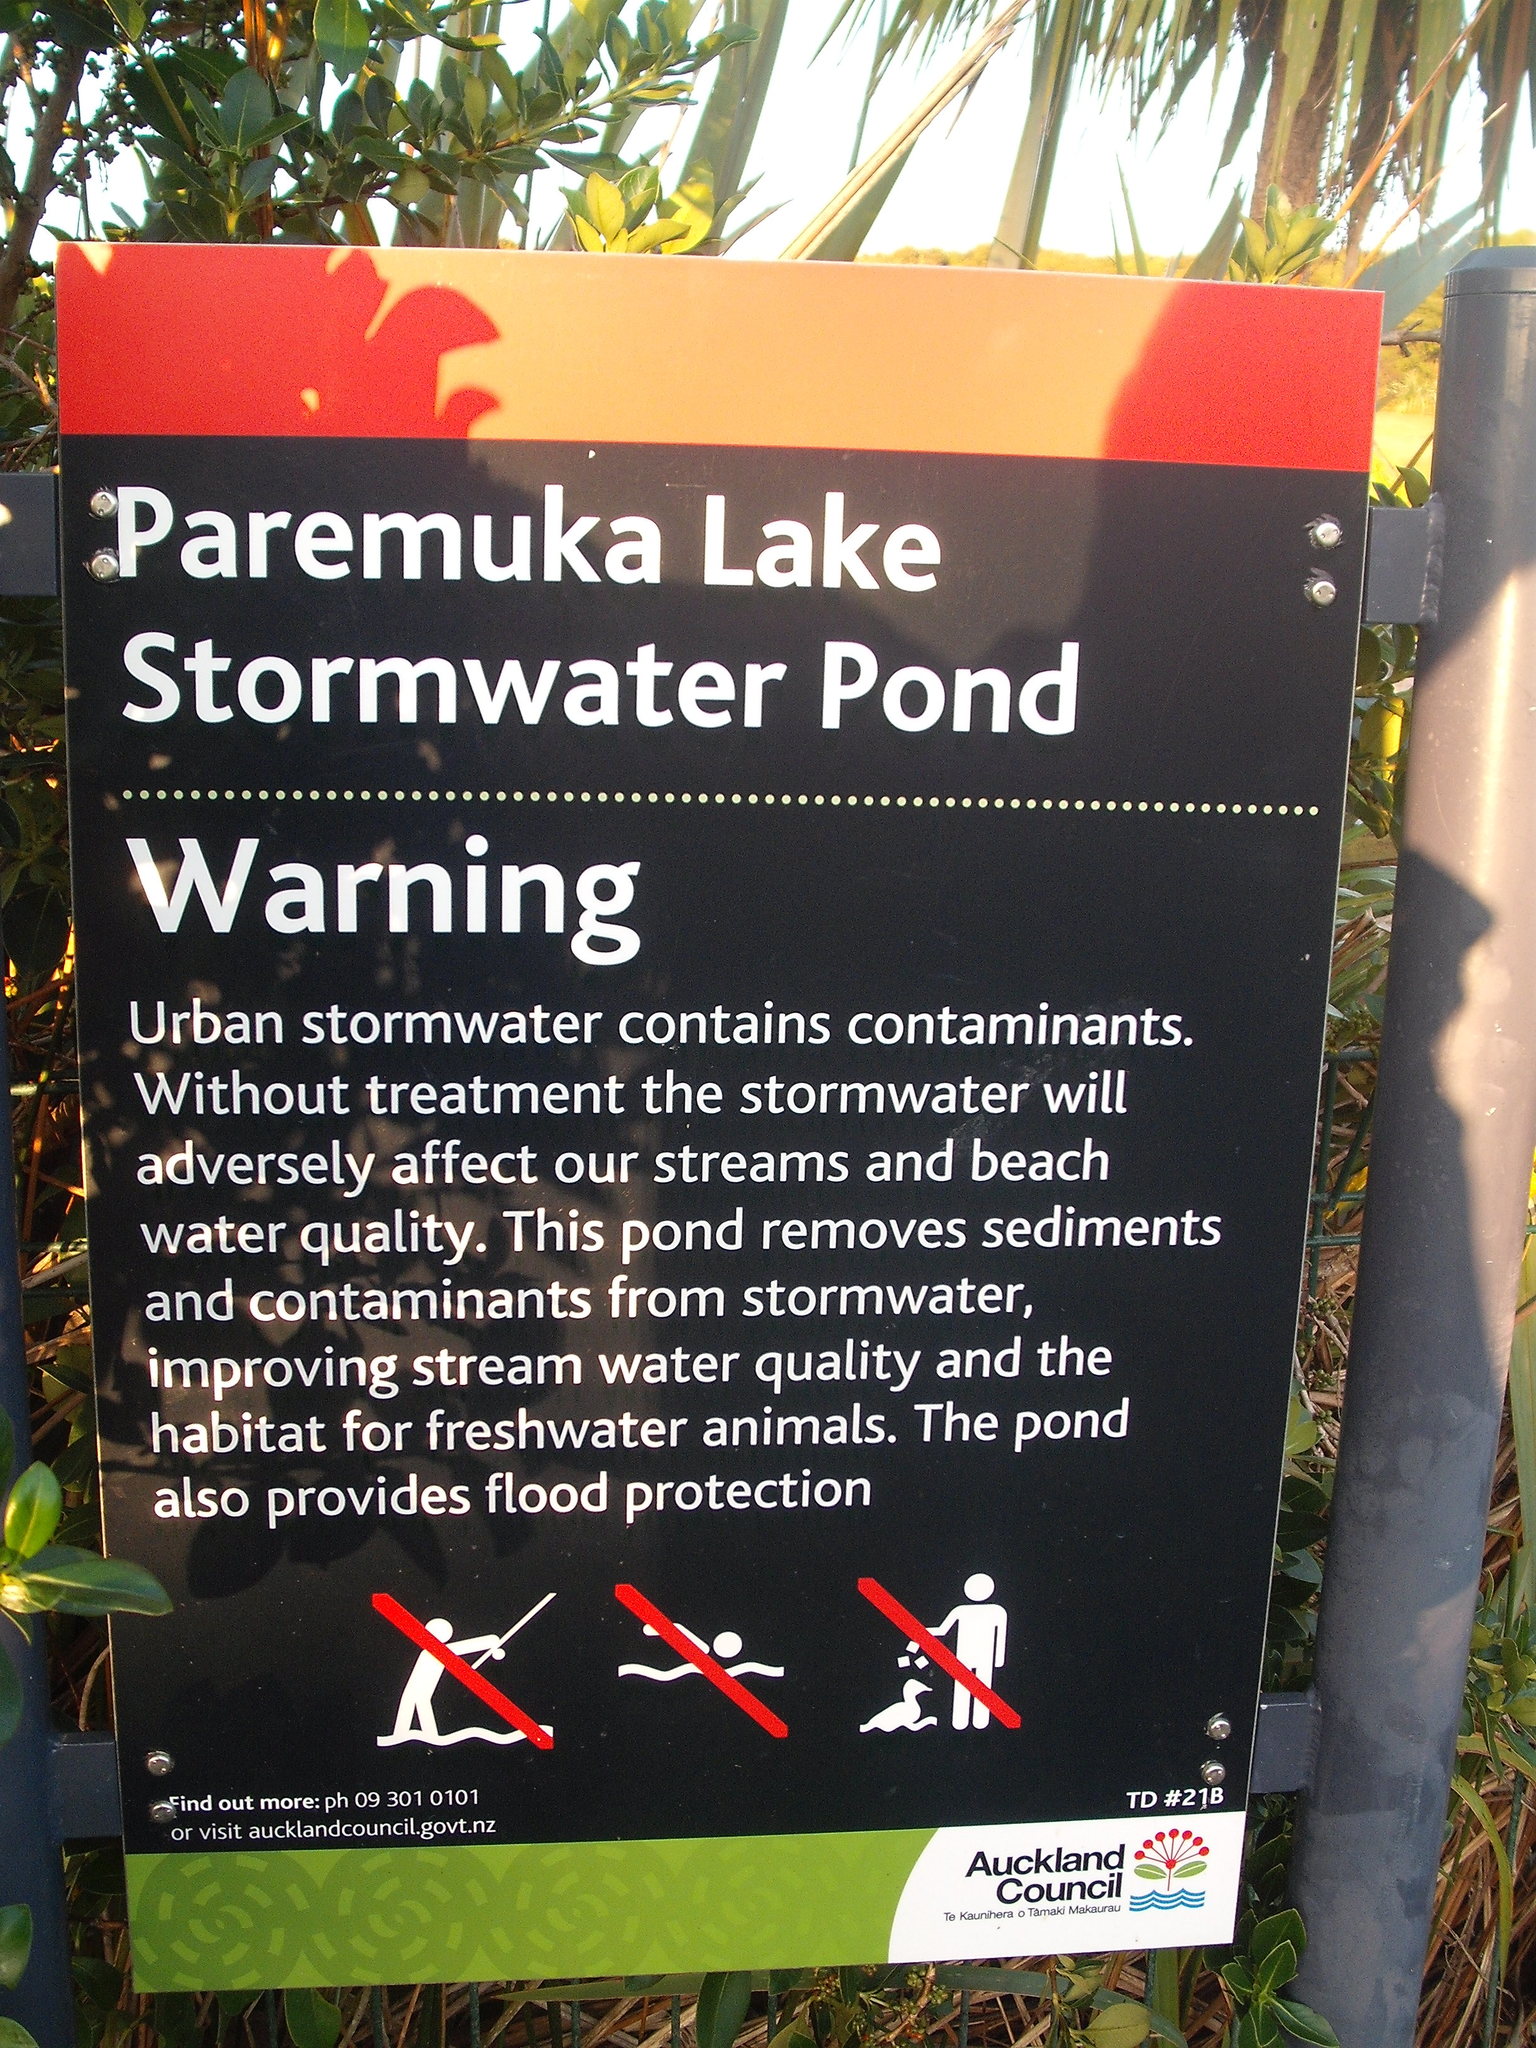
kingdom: Animalia
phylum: Arthropoda
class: Insecta
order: Odonata
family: Coenagrionidae
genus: Ischnura
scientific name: Ischnura aurora
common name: Gossamer damselfly
